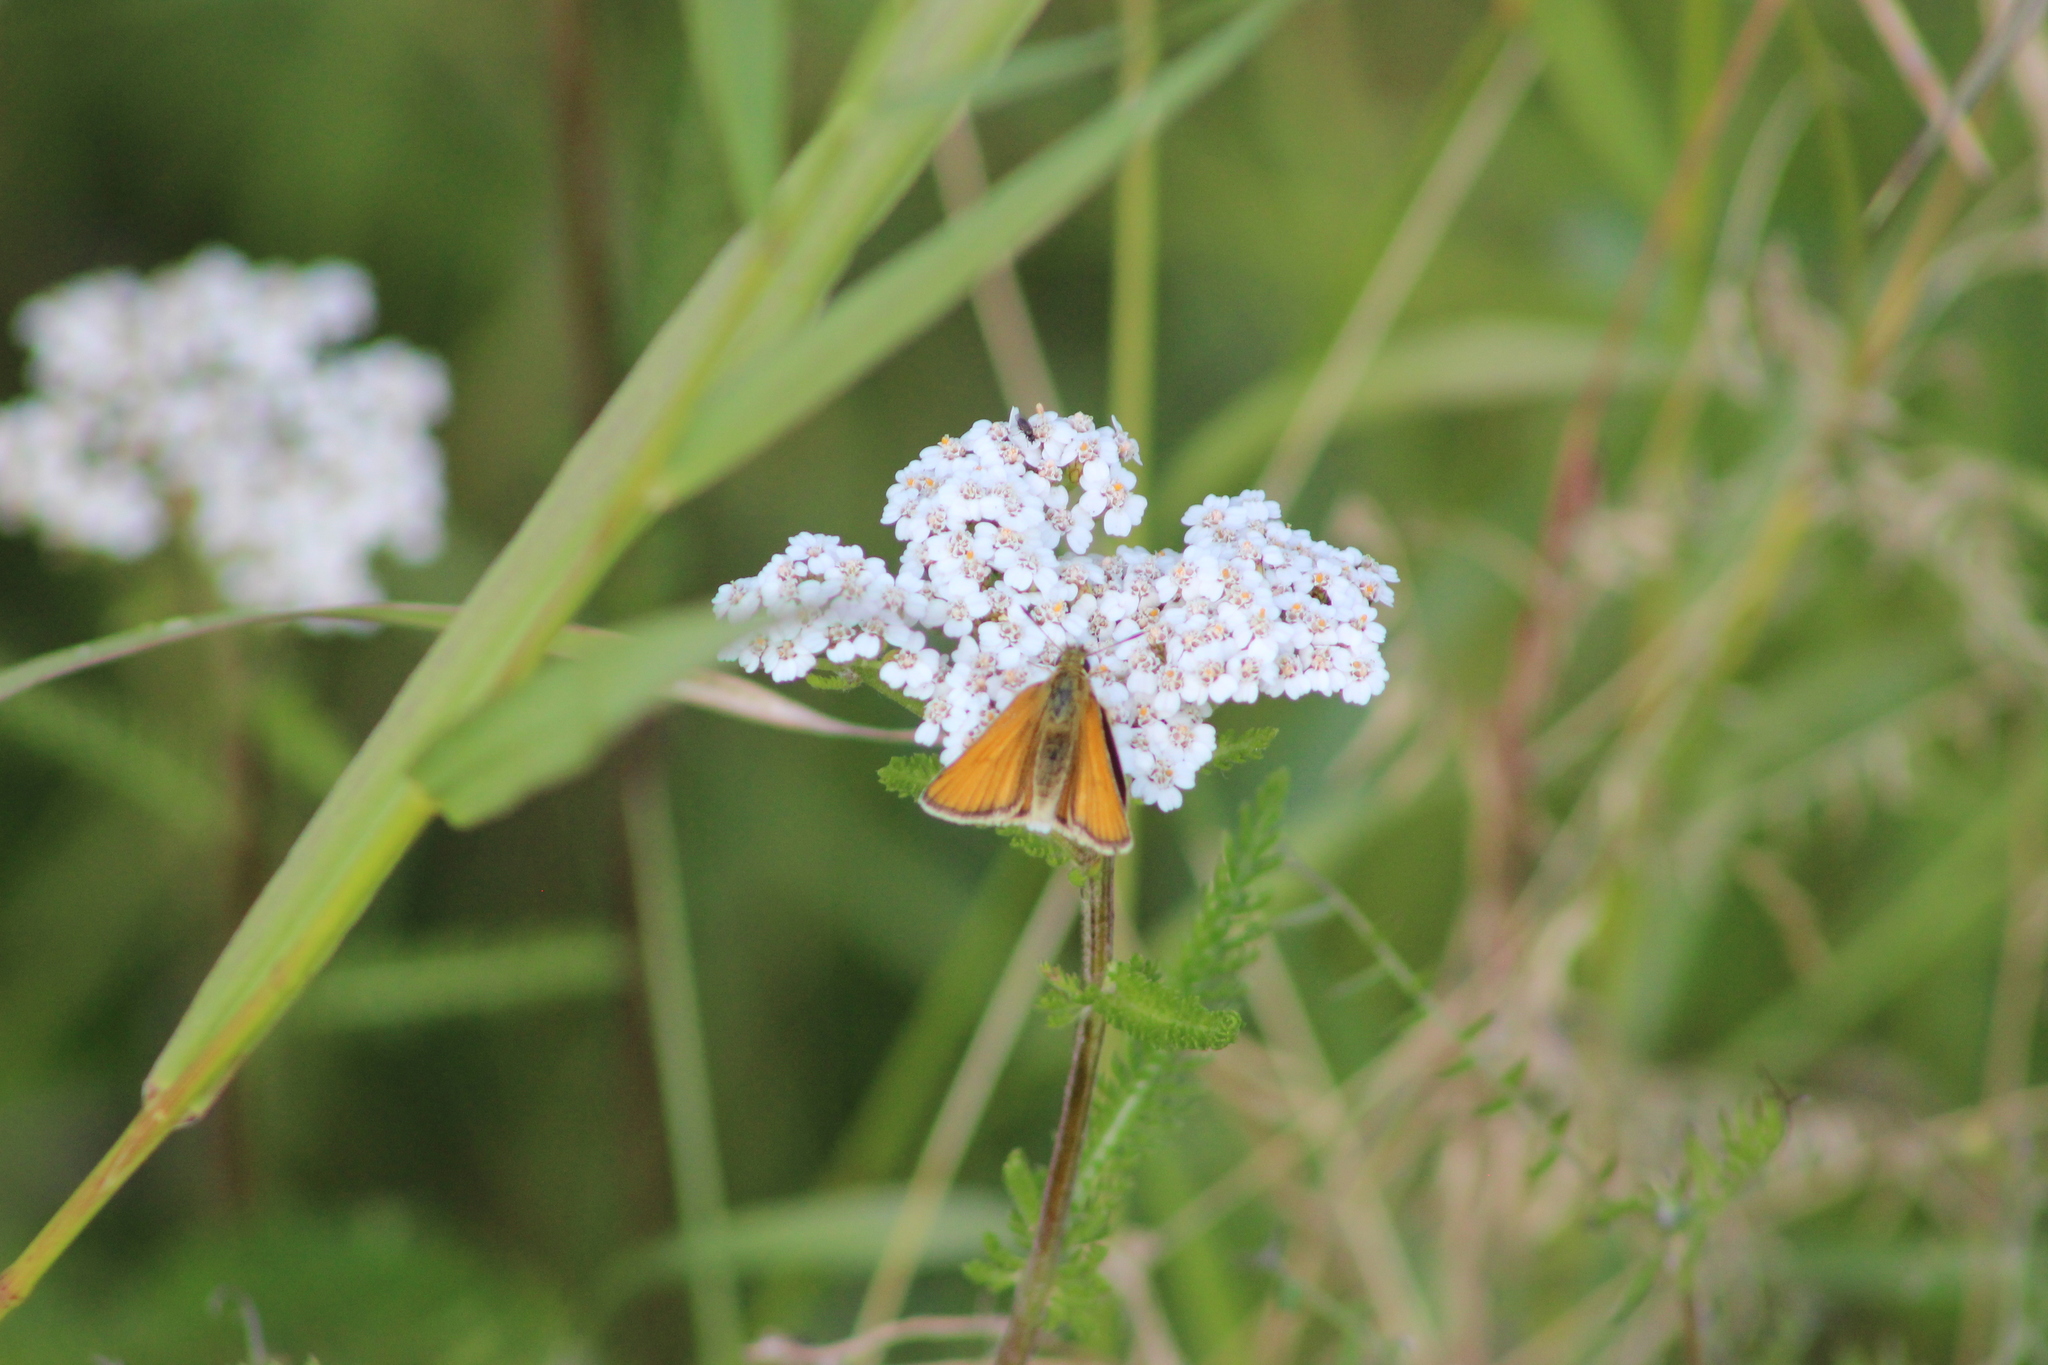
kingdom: Animalia
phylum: Arthropoda
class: Insecta
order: Lepidoptera
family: Hesperiidae
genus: Thymelicus
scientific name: Thymelicus lineola
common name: Essex skipper
